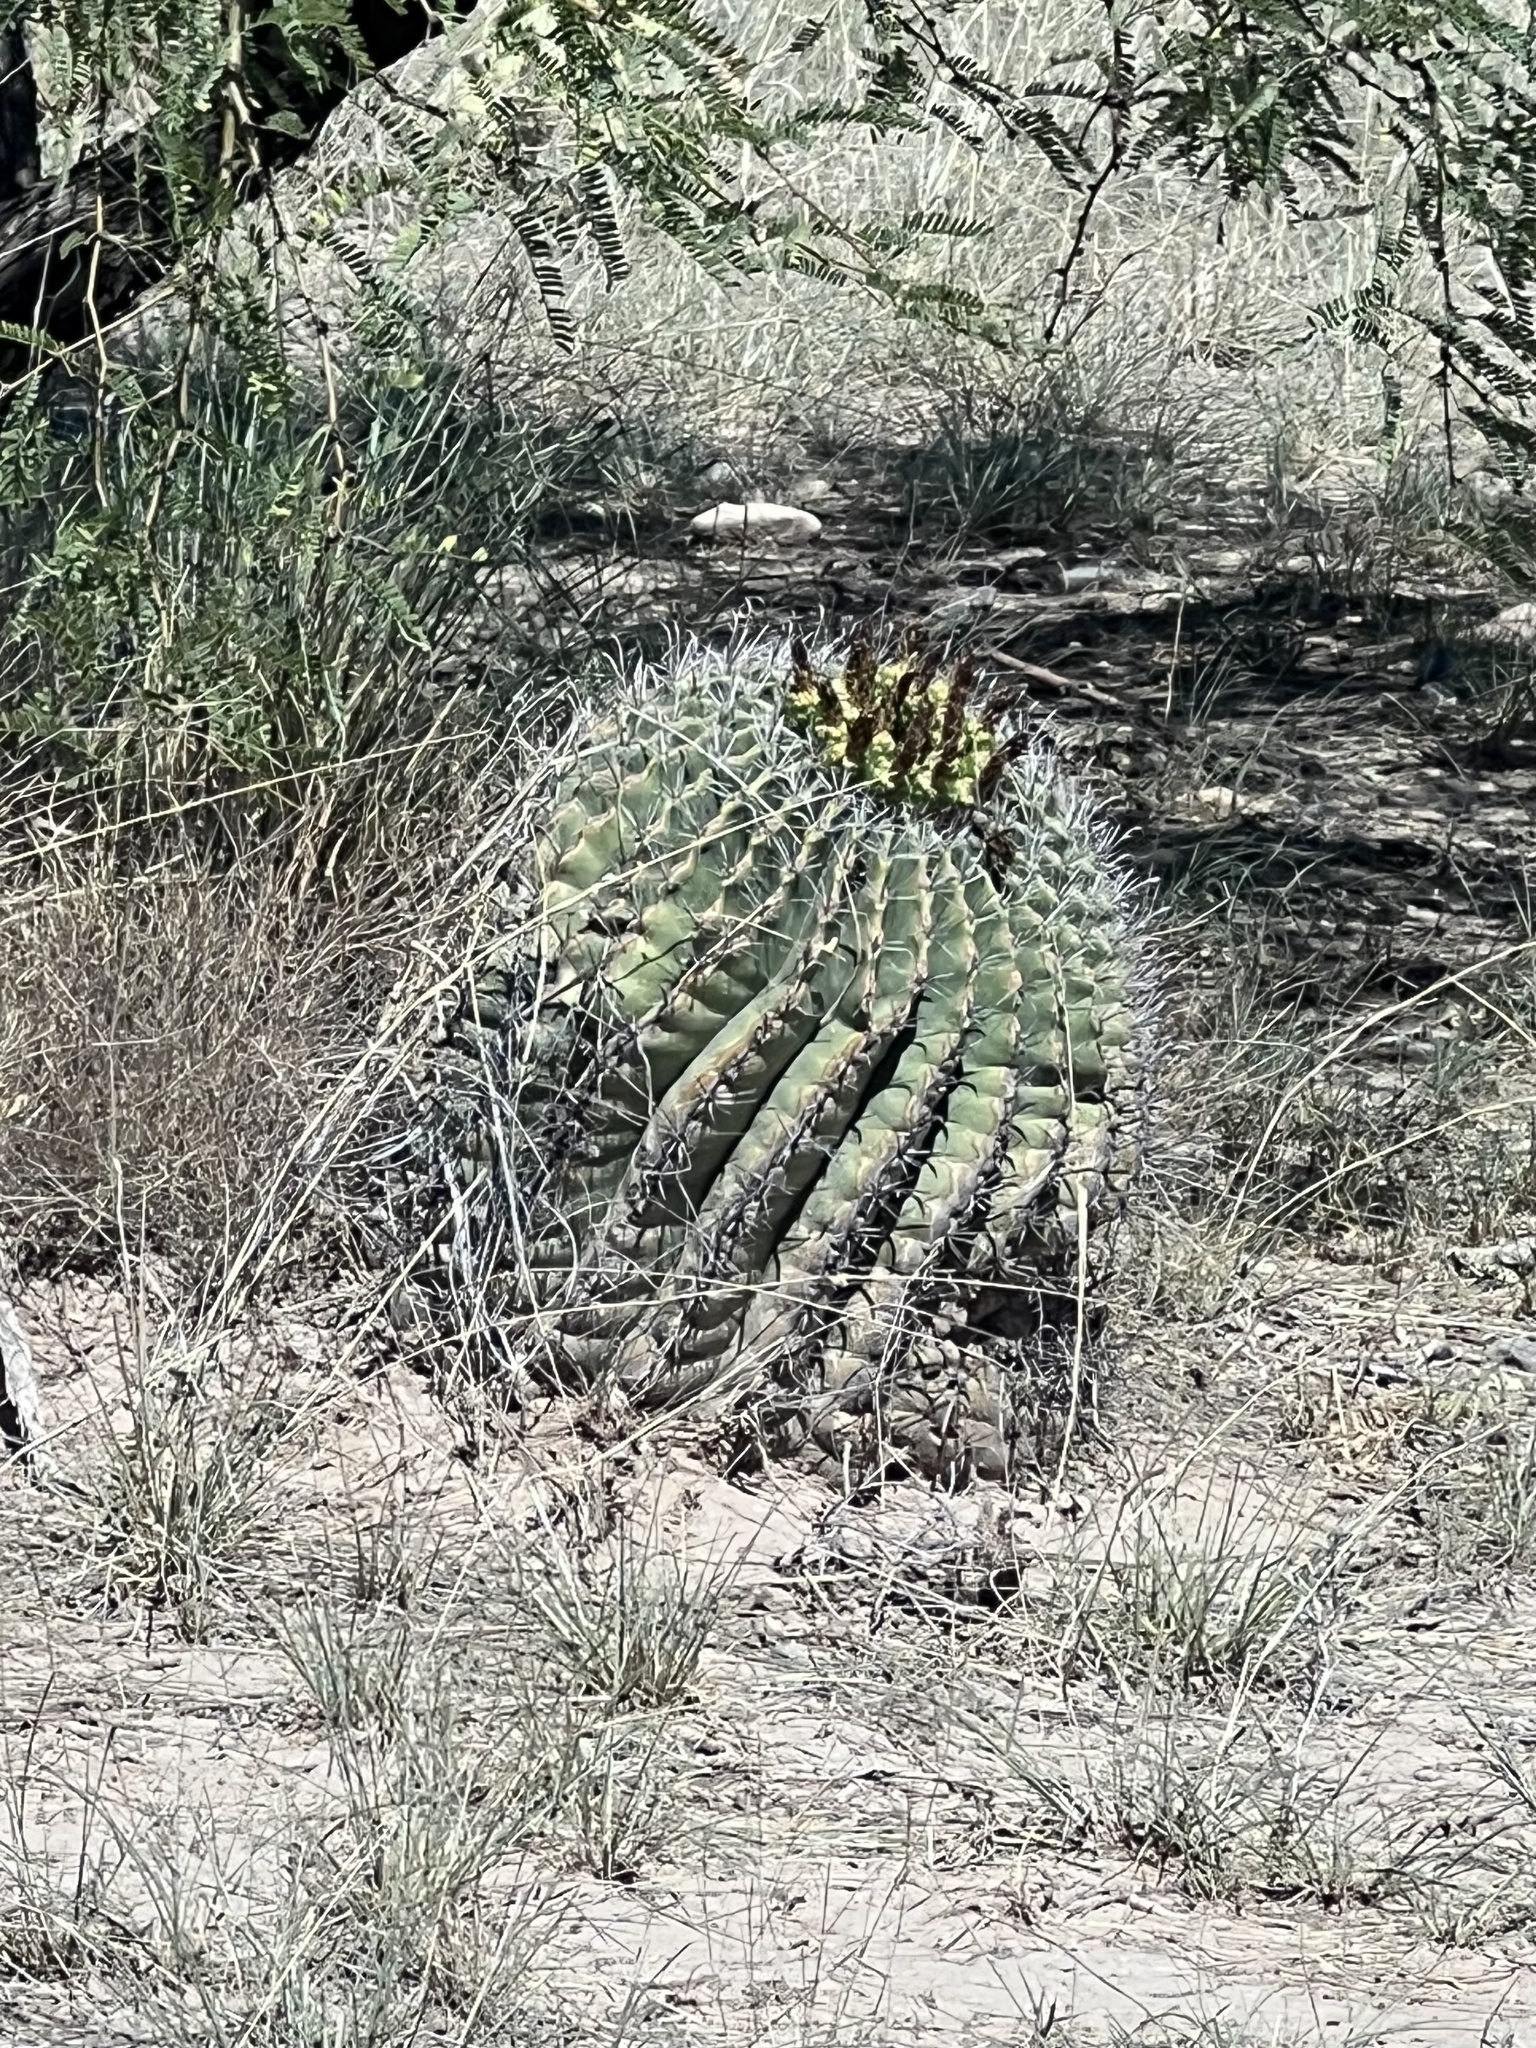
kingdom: Plantae
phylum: Tracheophyta
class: Magnoliopsida
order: Caryophyllales
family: Cactaceae
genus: Ferocactus
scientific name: Ferocactus wislizeni
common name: Candy barrel cactus
